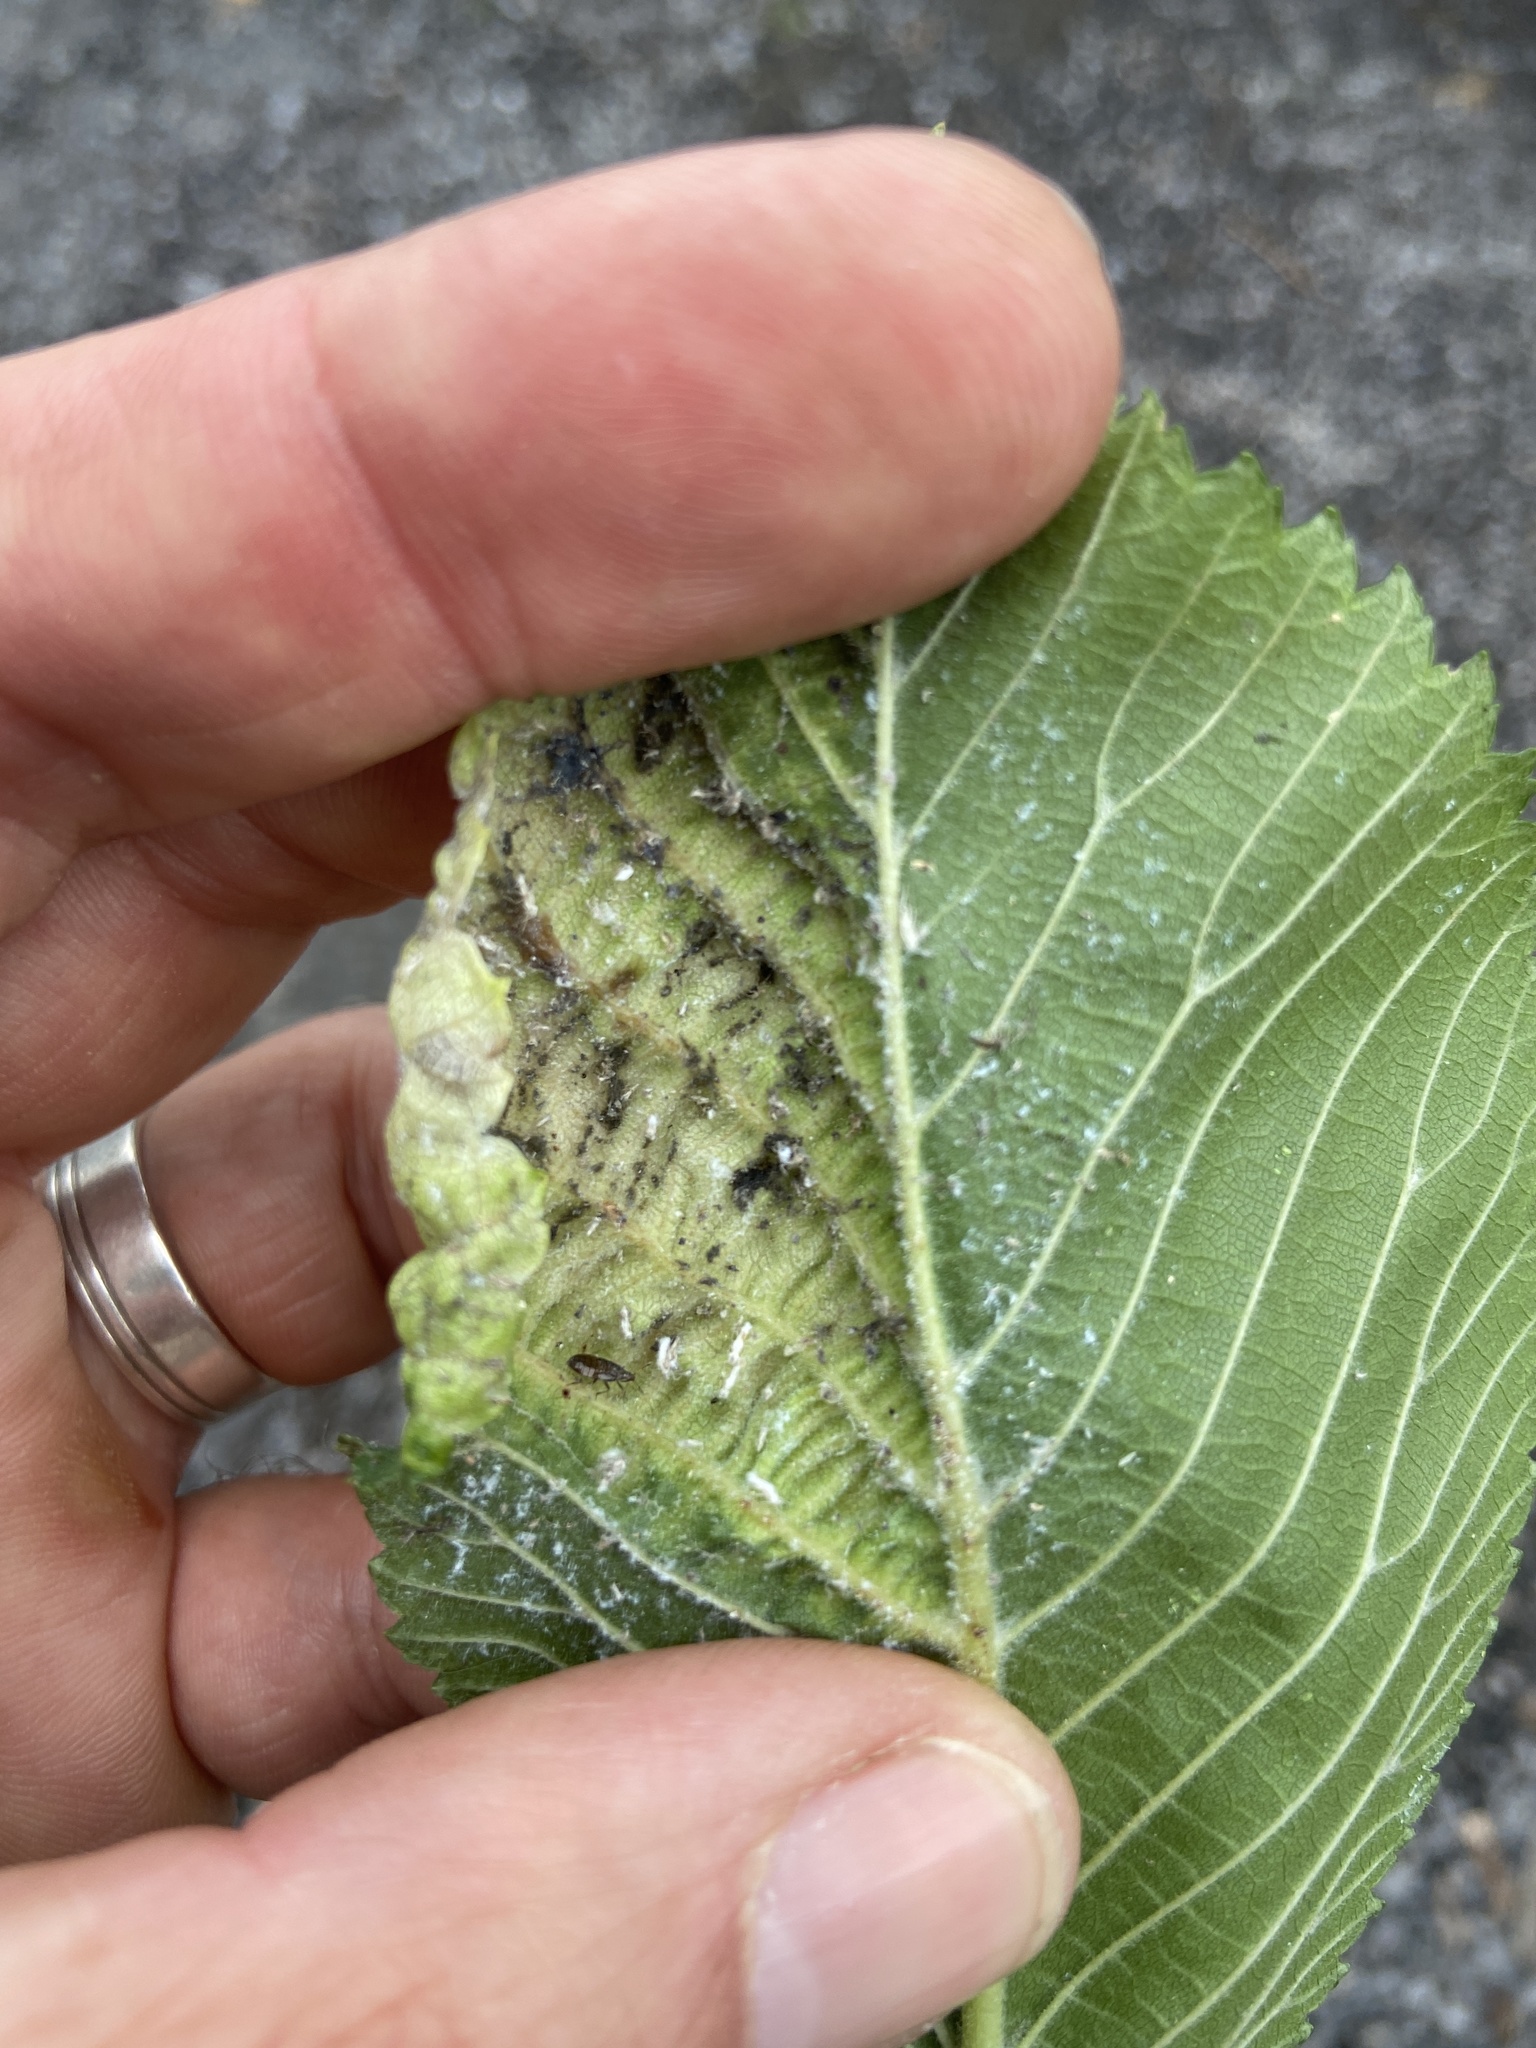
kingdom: Animalia
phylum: Arthropoda
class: Insecta
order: Hemiptera
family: Aphididae
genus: Eriosoma
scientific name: Eriosoma ulmi
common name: Woolly aphids
